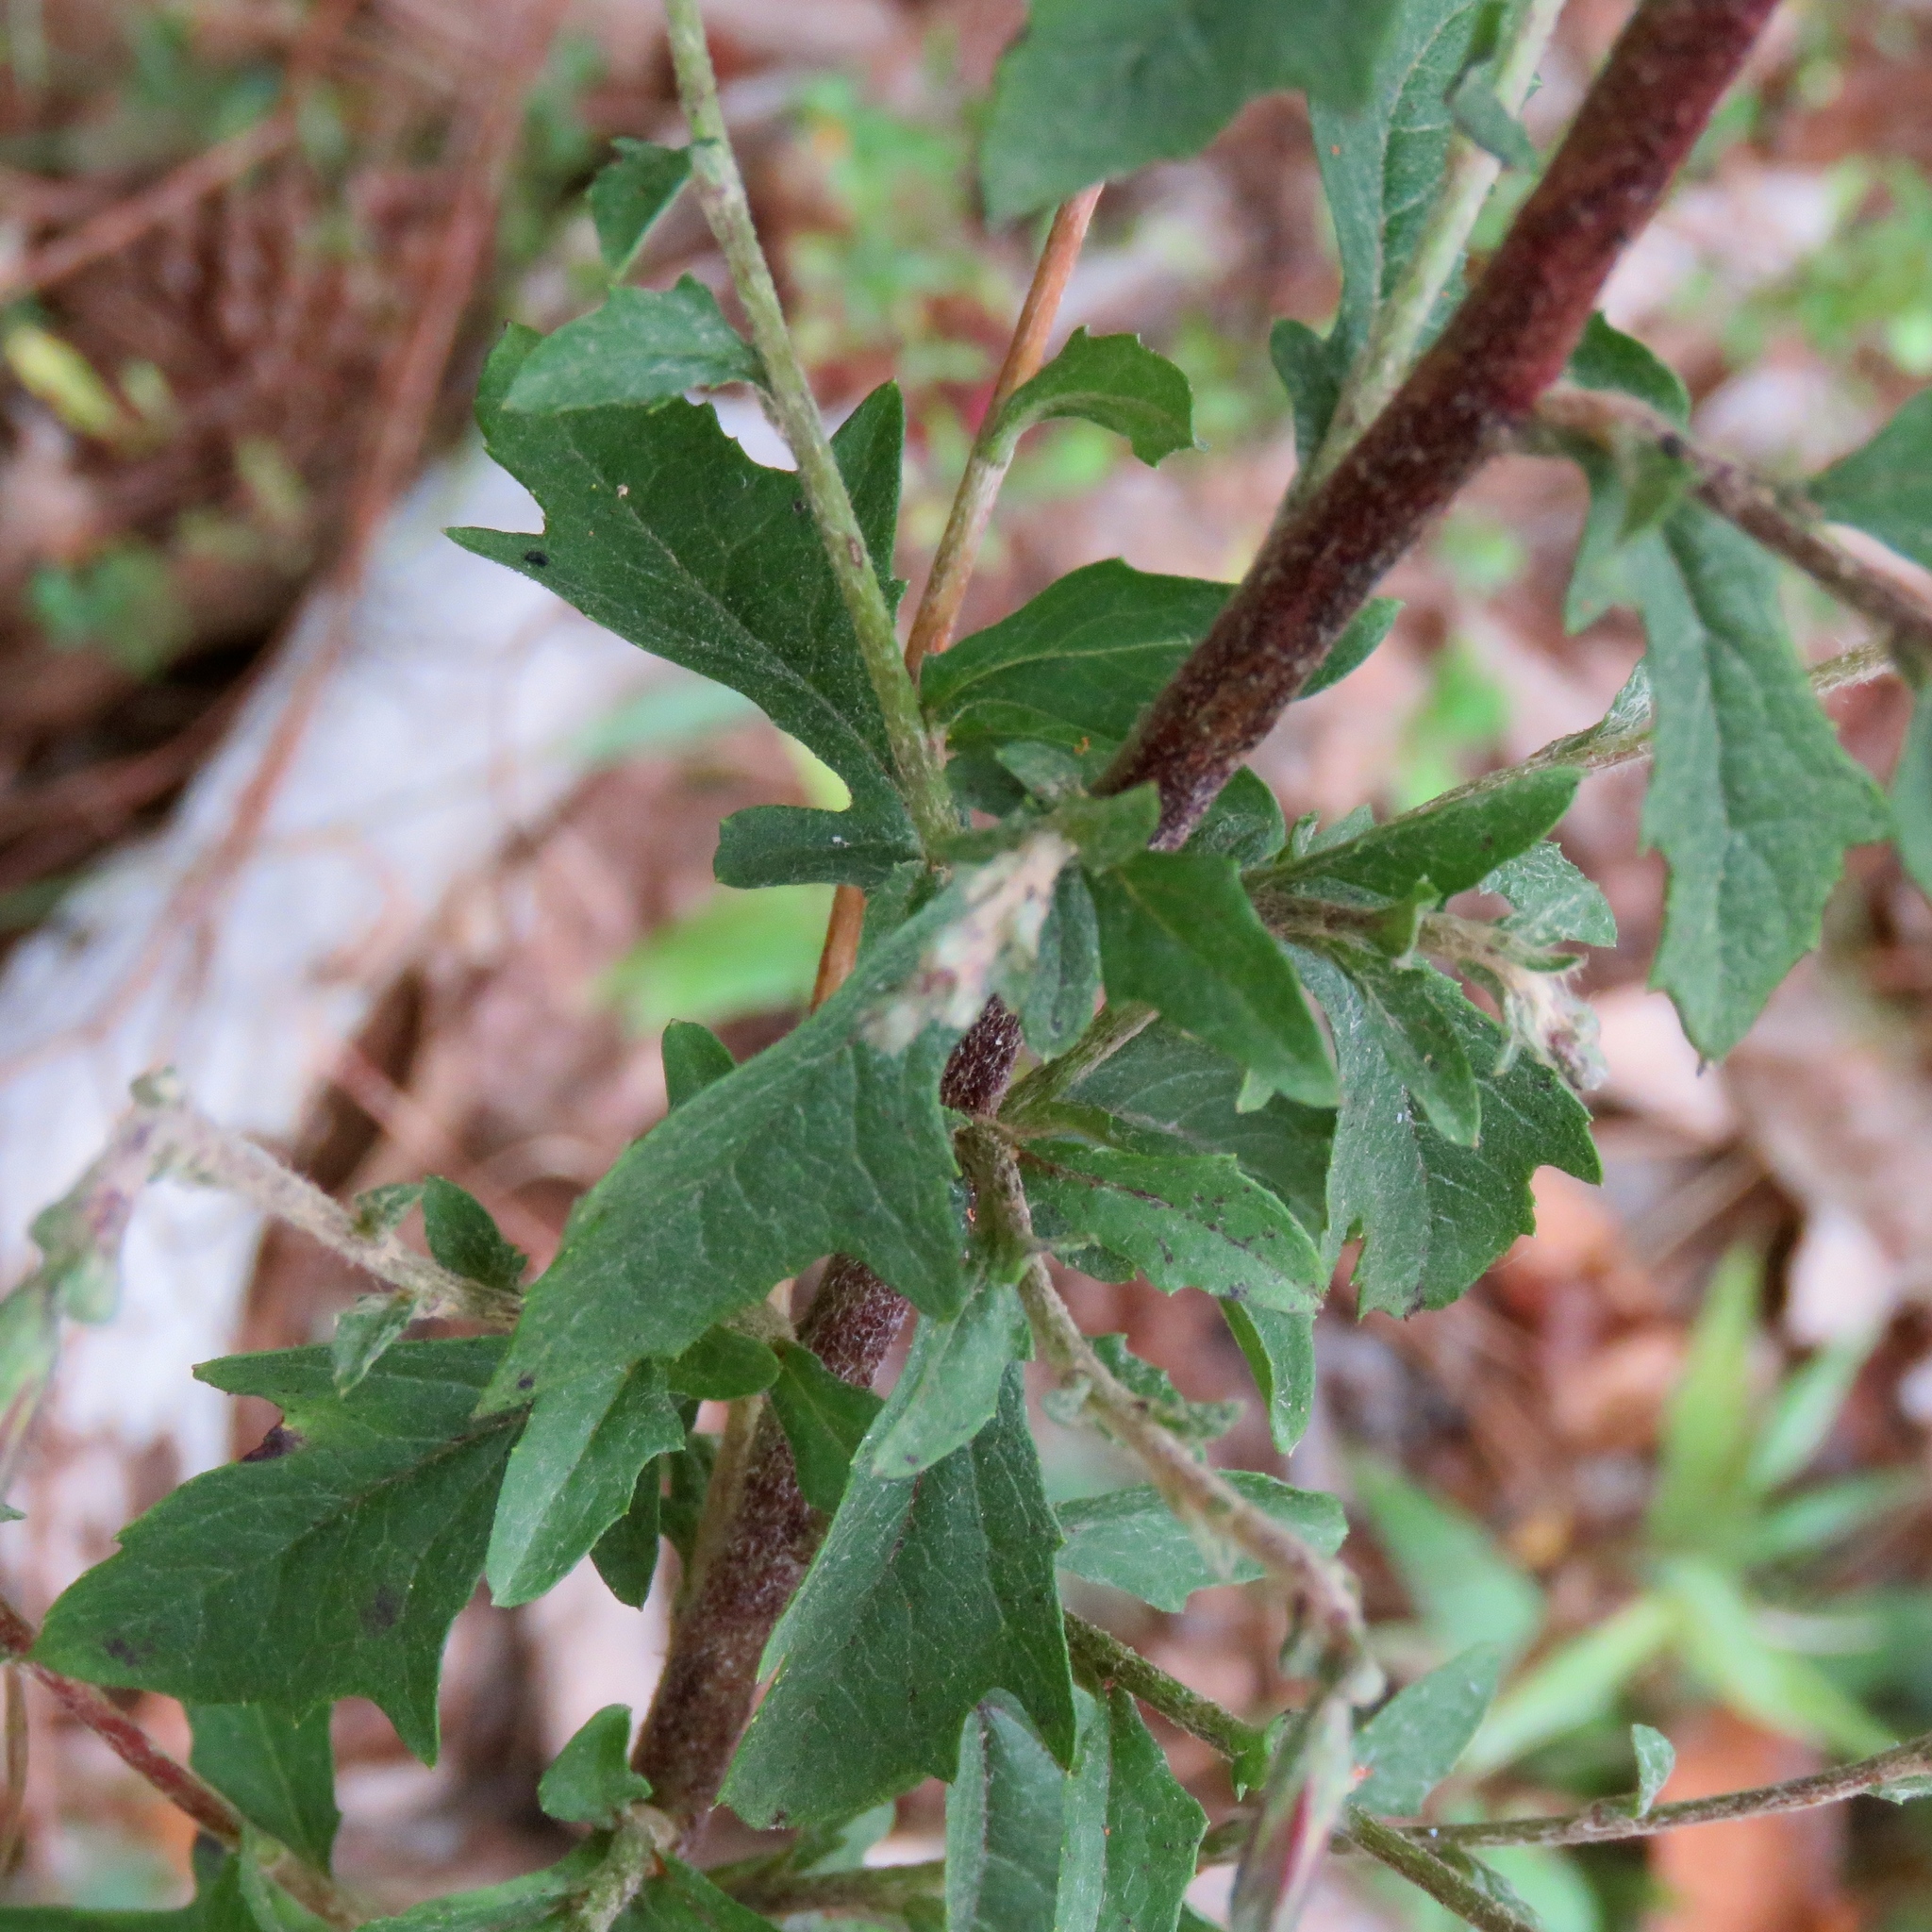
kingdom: Plantae
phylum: Tracheophyta
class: Magnoliopsida
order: Asterales
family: Asteraceae
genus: Nabalus
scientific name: Nabalus barbata
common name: Barbed rattlesnakeroot
